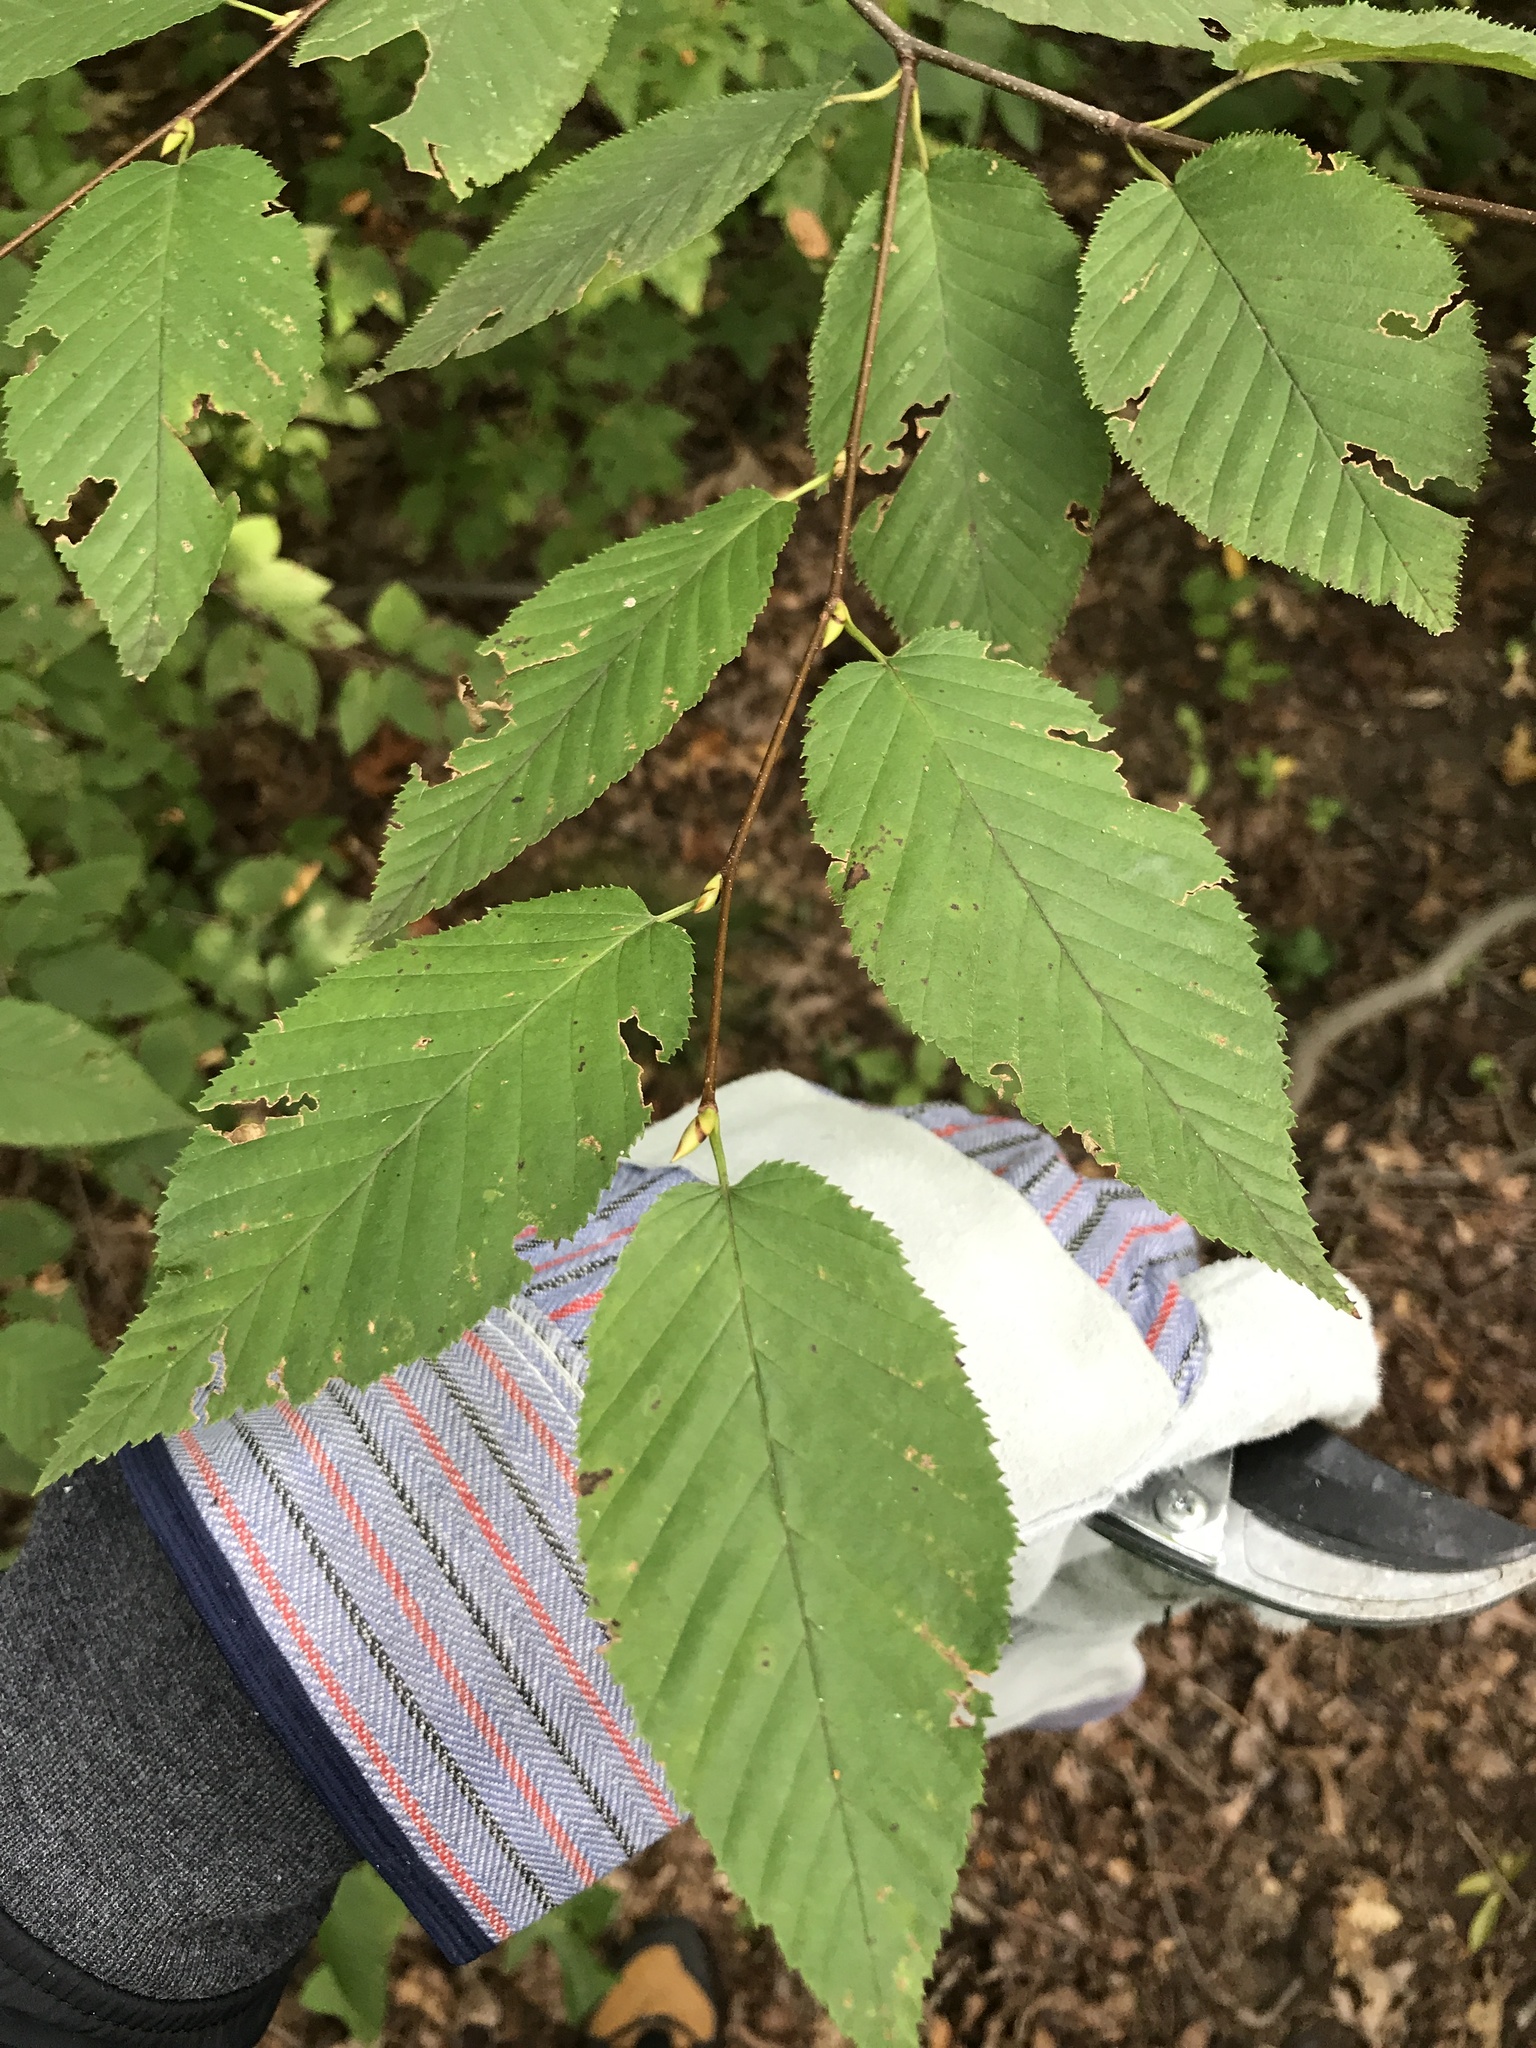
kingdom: Plantae
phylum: Tracheophyta
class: Magnoliopsida
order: Fagales
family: Betulaceae
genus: Betula
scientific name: Betula lenta
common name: Black birch
